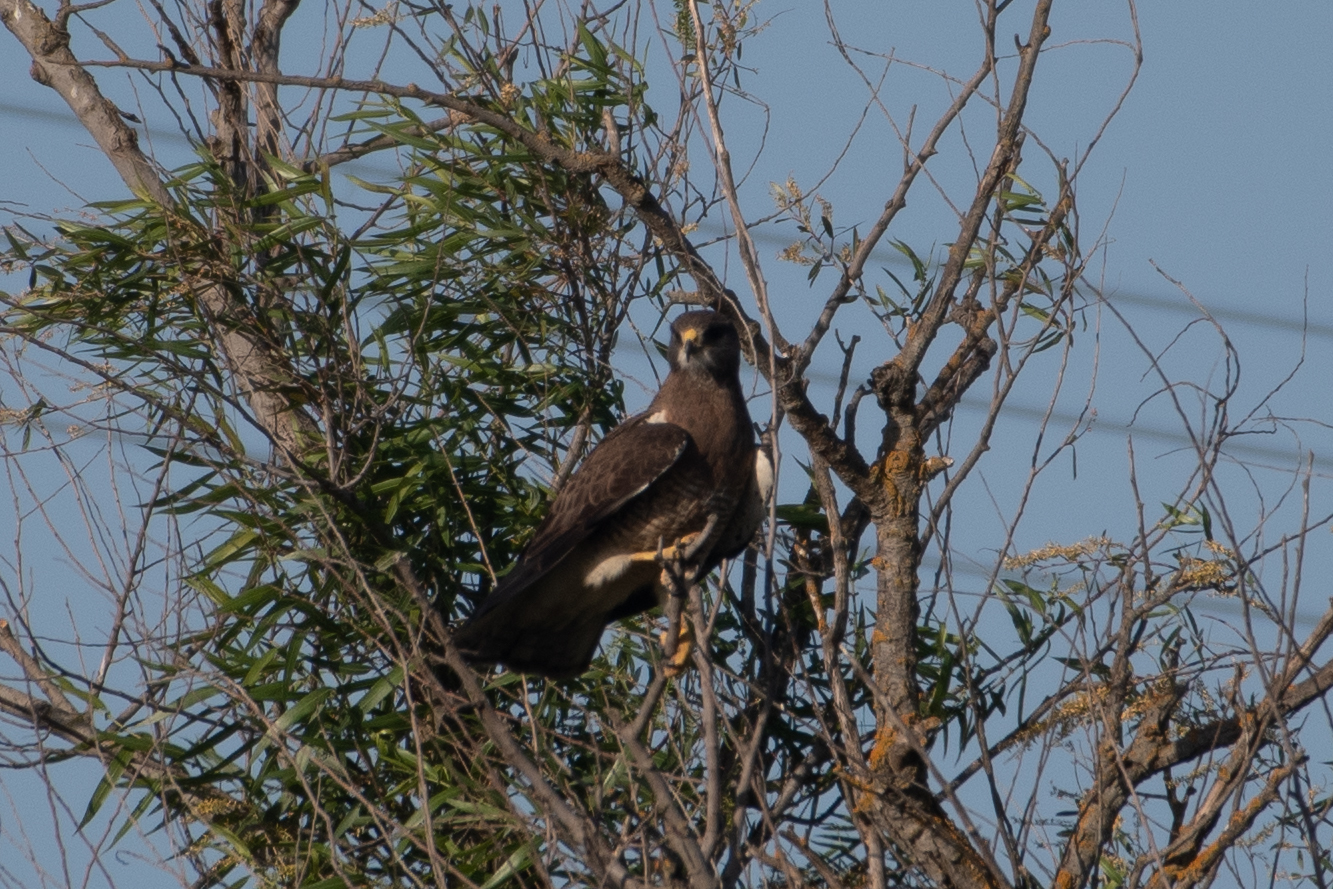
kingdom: Animalia
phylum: Chordata
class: Aves
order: Accipitriformes
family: Accipitridae
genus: Buteo
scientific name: Buteo swainsoni
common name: Swainson's hawk
